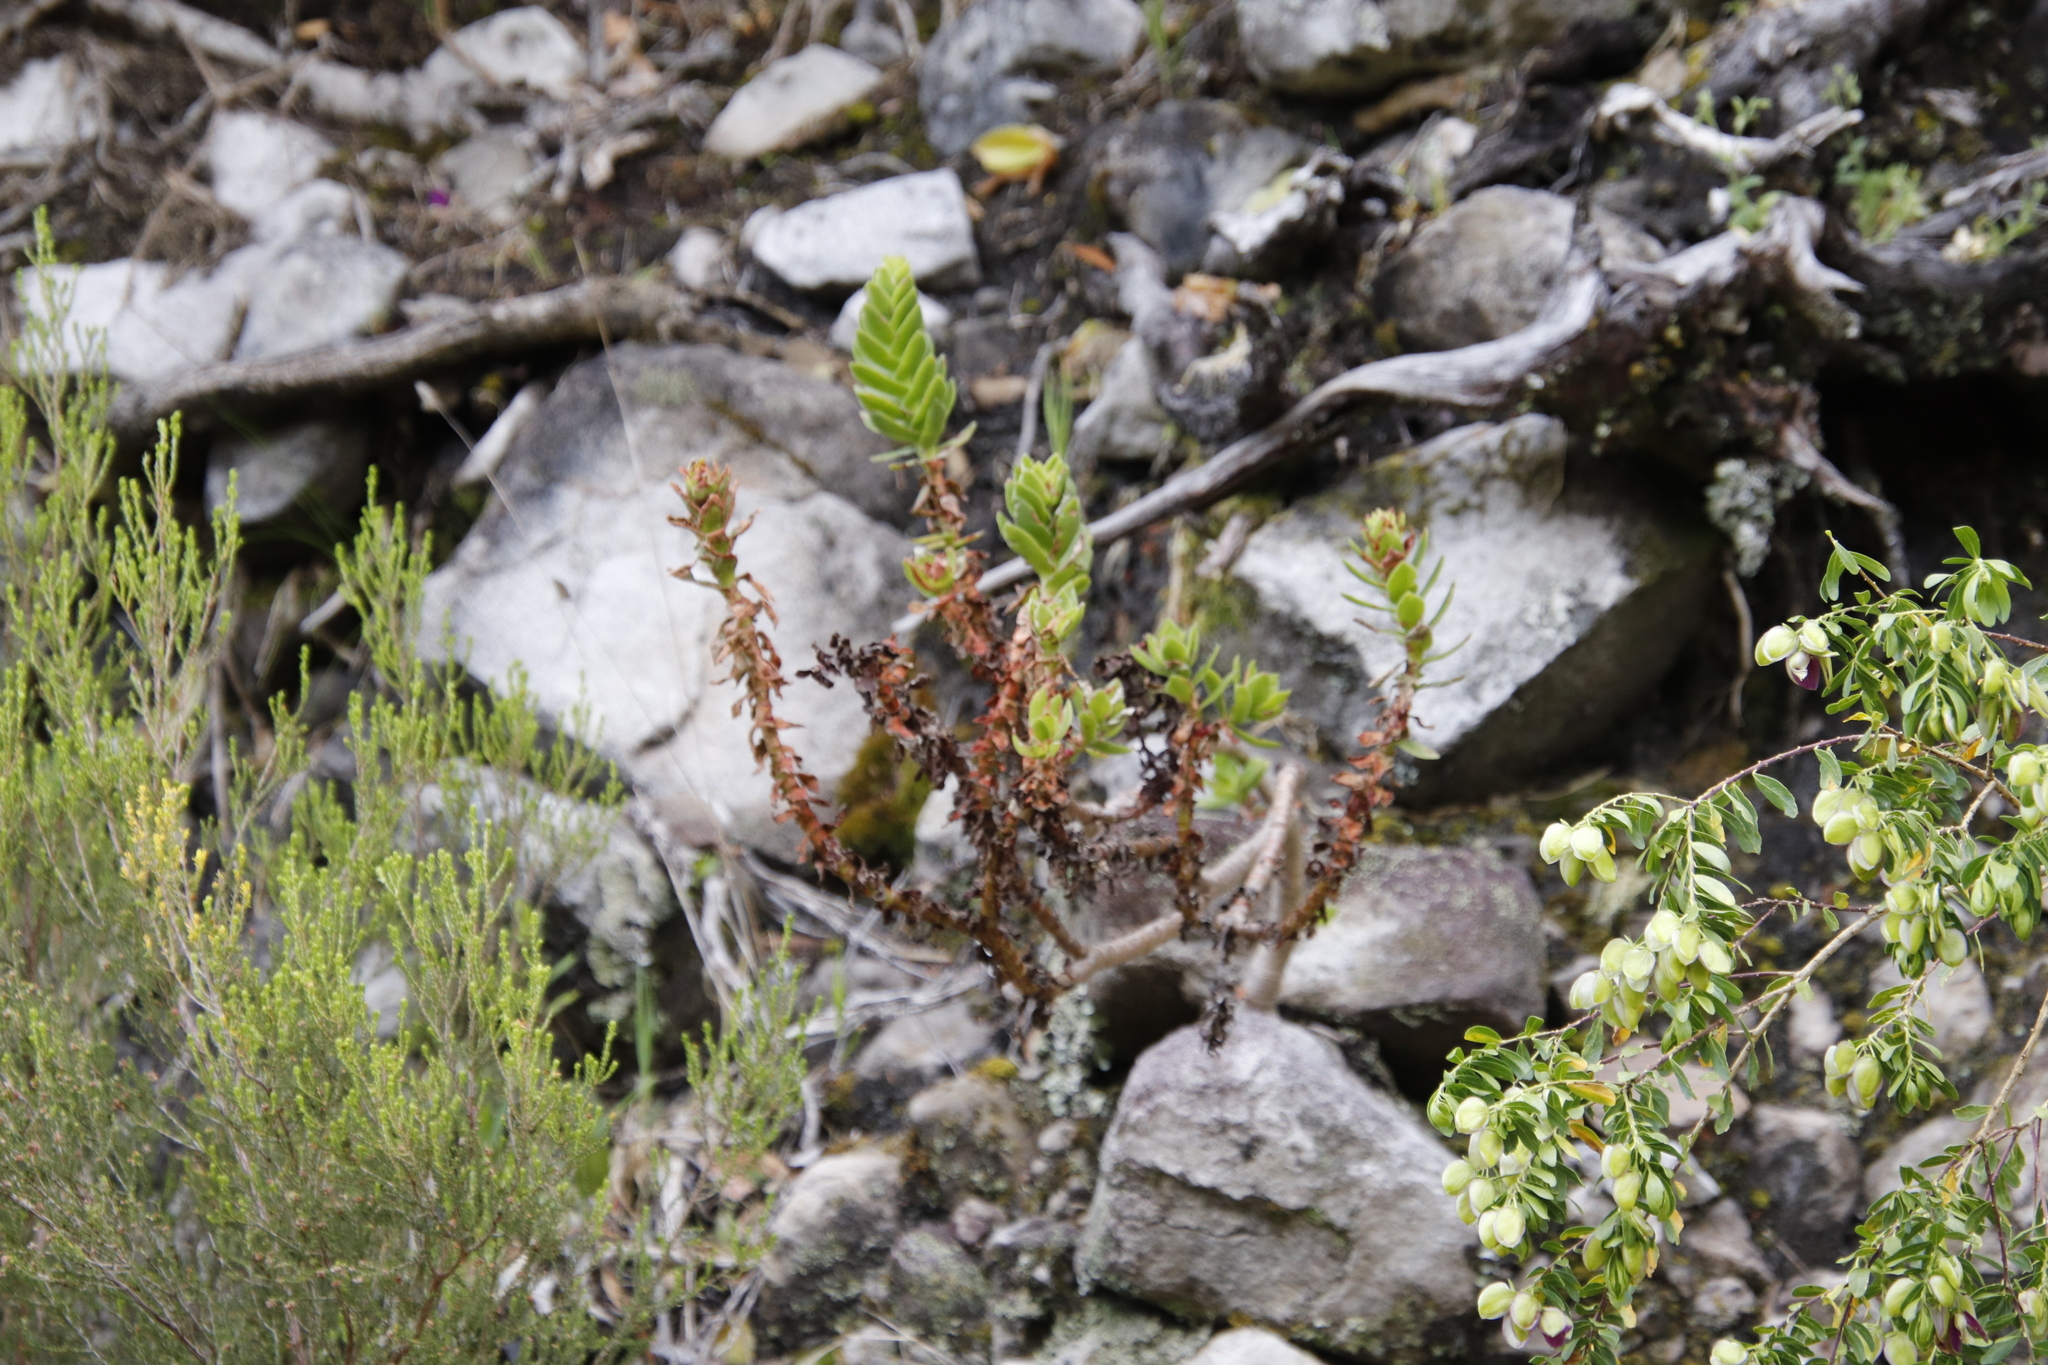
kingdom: Plantae
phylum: Tracheophyta
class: Magnoliopsida
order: Saxifragales
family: Crassulaceae
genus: Crassula
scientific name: Crassula coccinea
